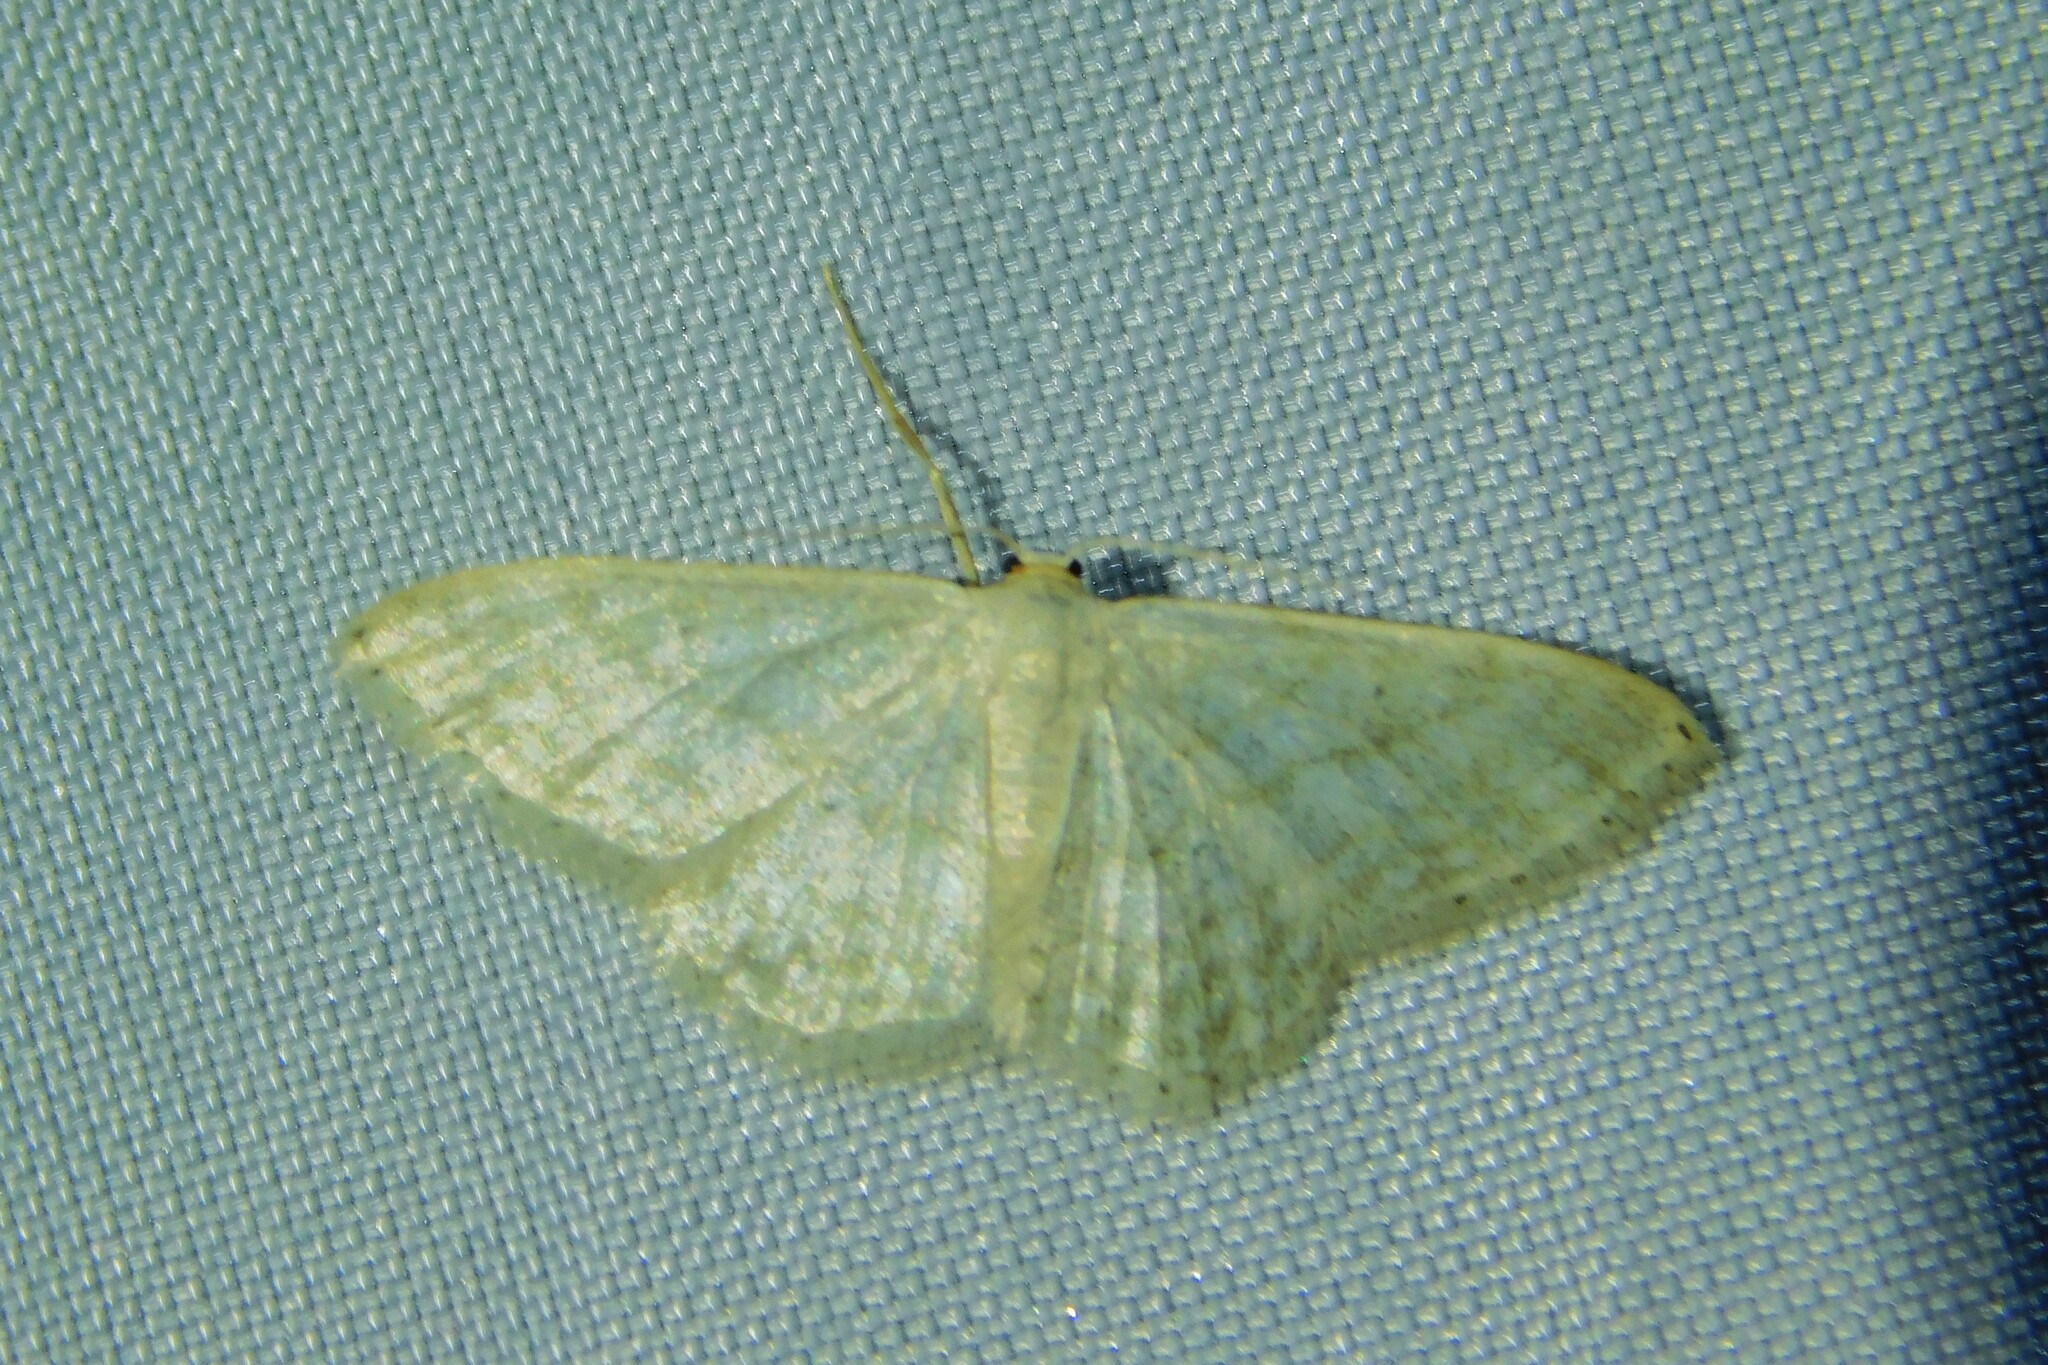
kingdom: Animalia
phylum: Arthropoda
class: Insecta
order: Lepidoptera
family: Geometridae
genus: Idaea
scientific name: Idaea subsericeata
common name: Satin wave
